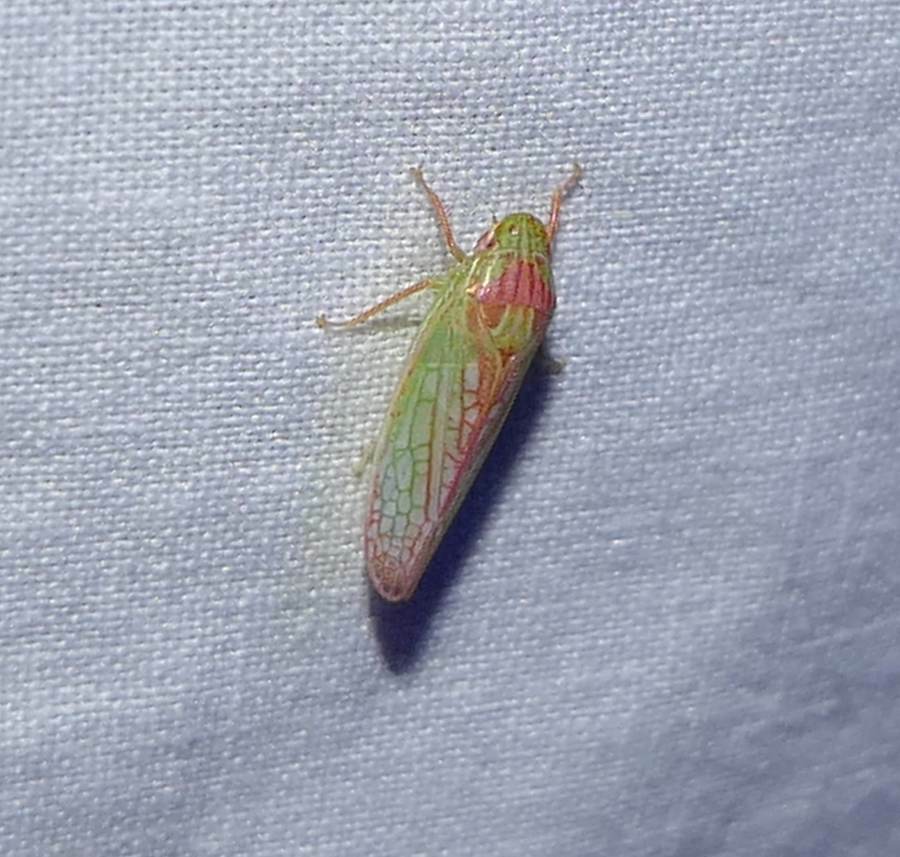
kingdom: Animalia
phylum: Arthropoda
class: Insecta
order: Hemiptera
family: Cicadellidae
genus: Gyponana
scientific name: Gyponana octolineata
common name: Eight-lined leafhopper
